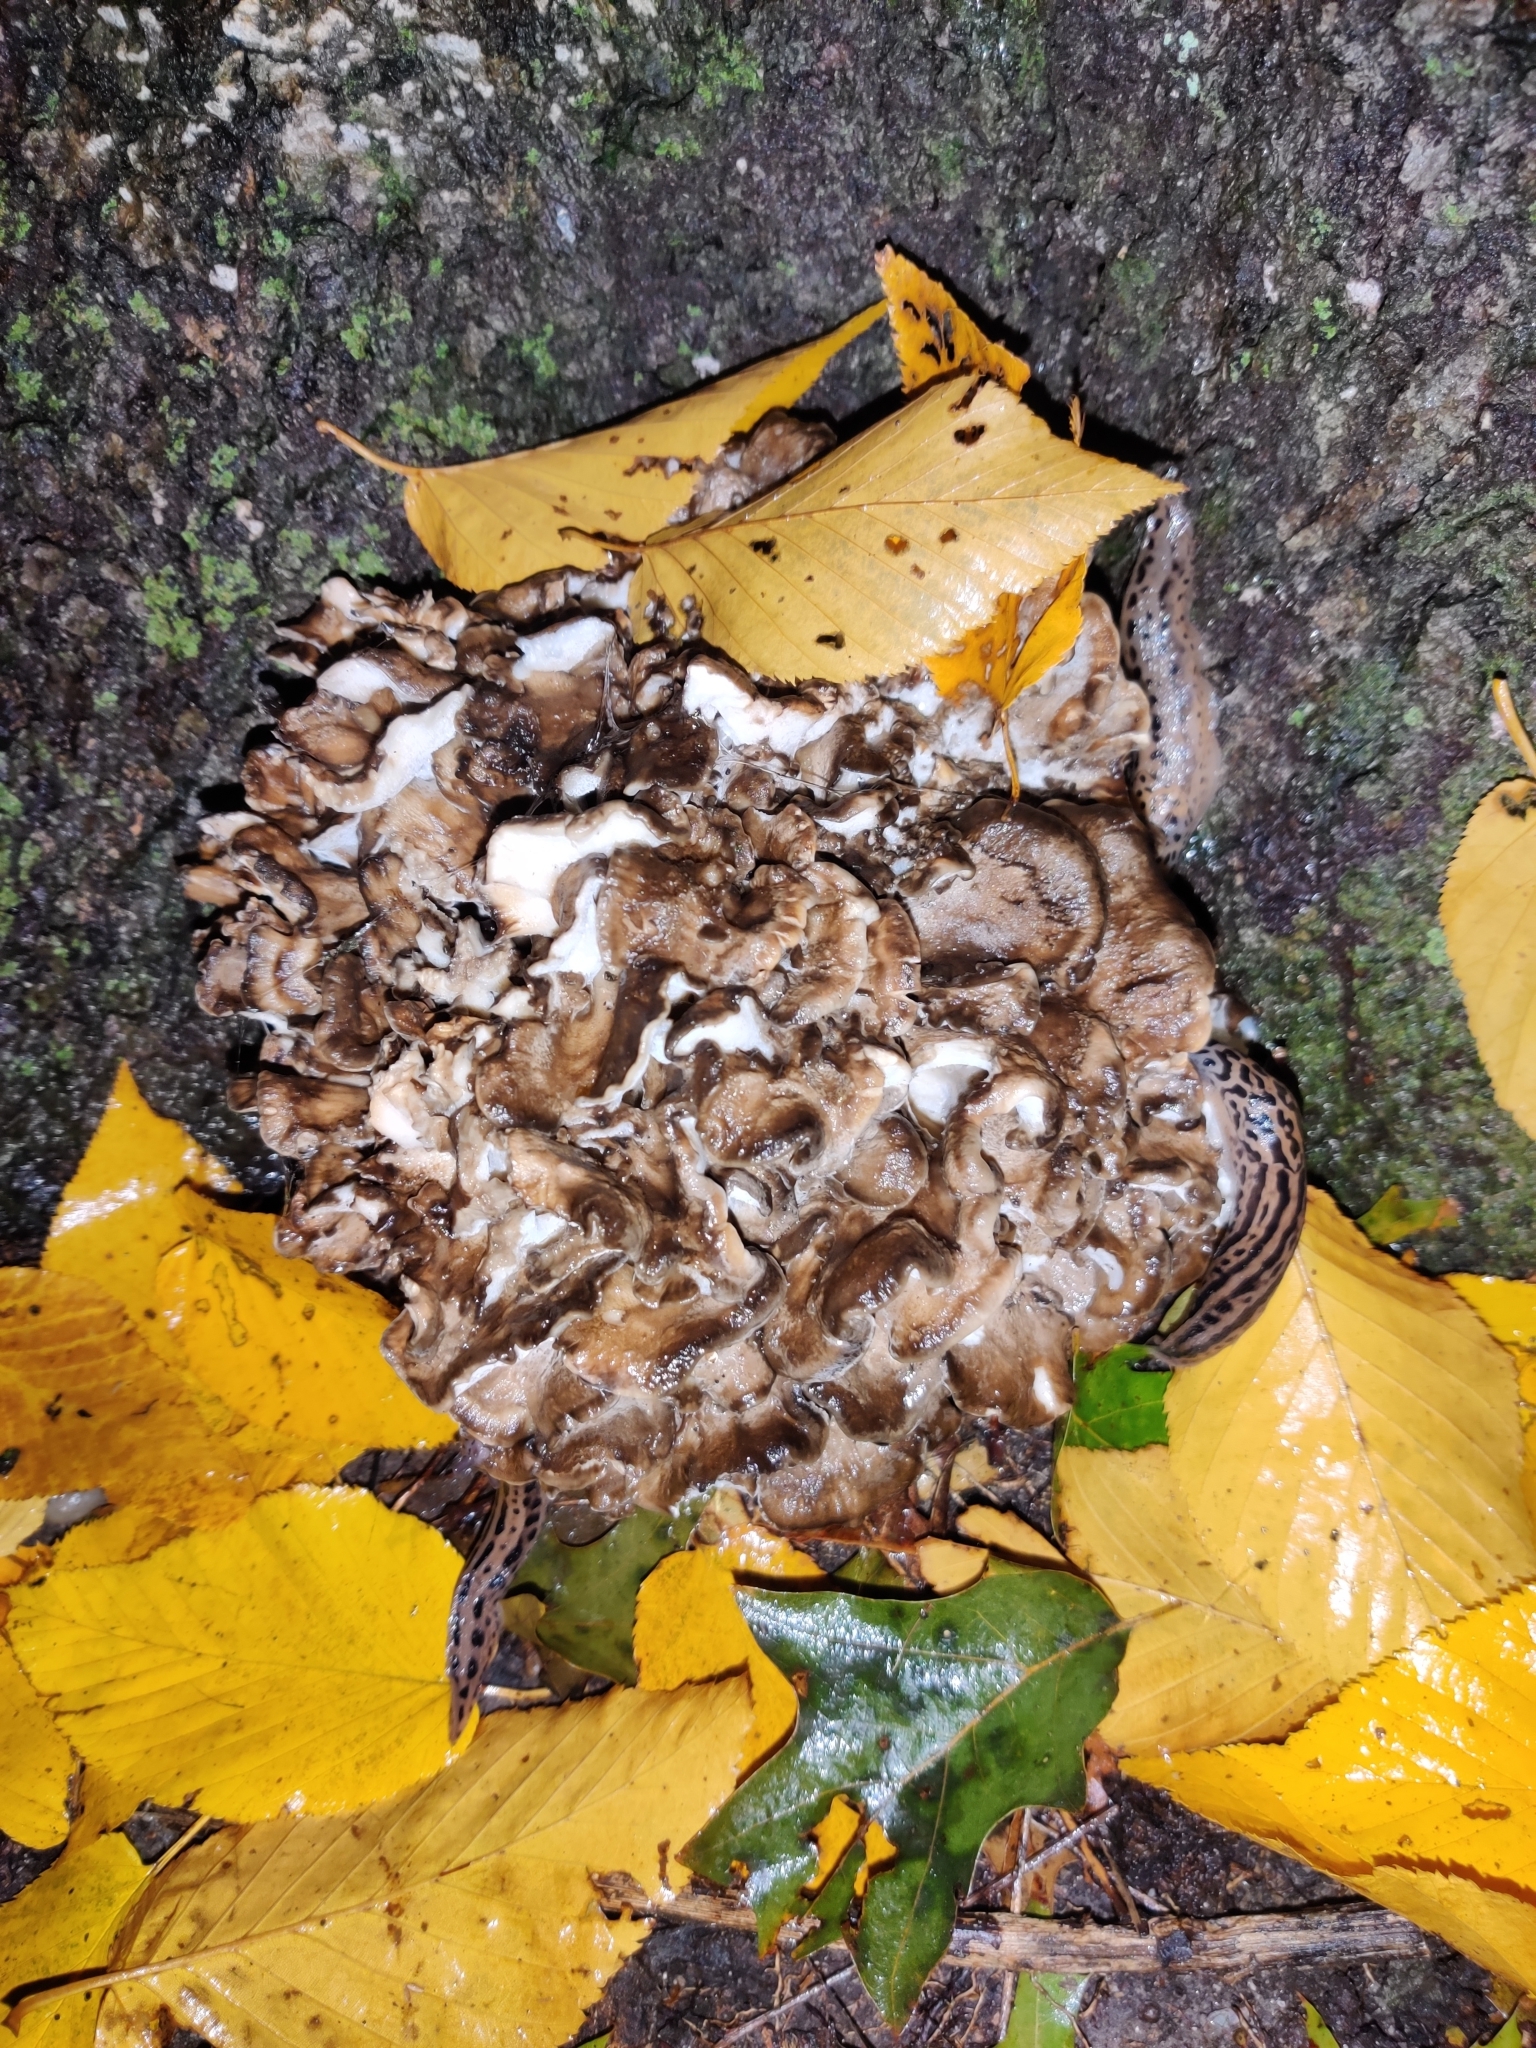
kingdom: Fungi
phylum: Basidiomycota
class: Agaricomycetes
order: Polyporales
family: Grifolaceae
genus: Grifola
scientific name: Grifola frondosa
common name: Hen of the woods
